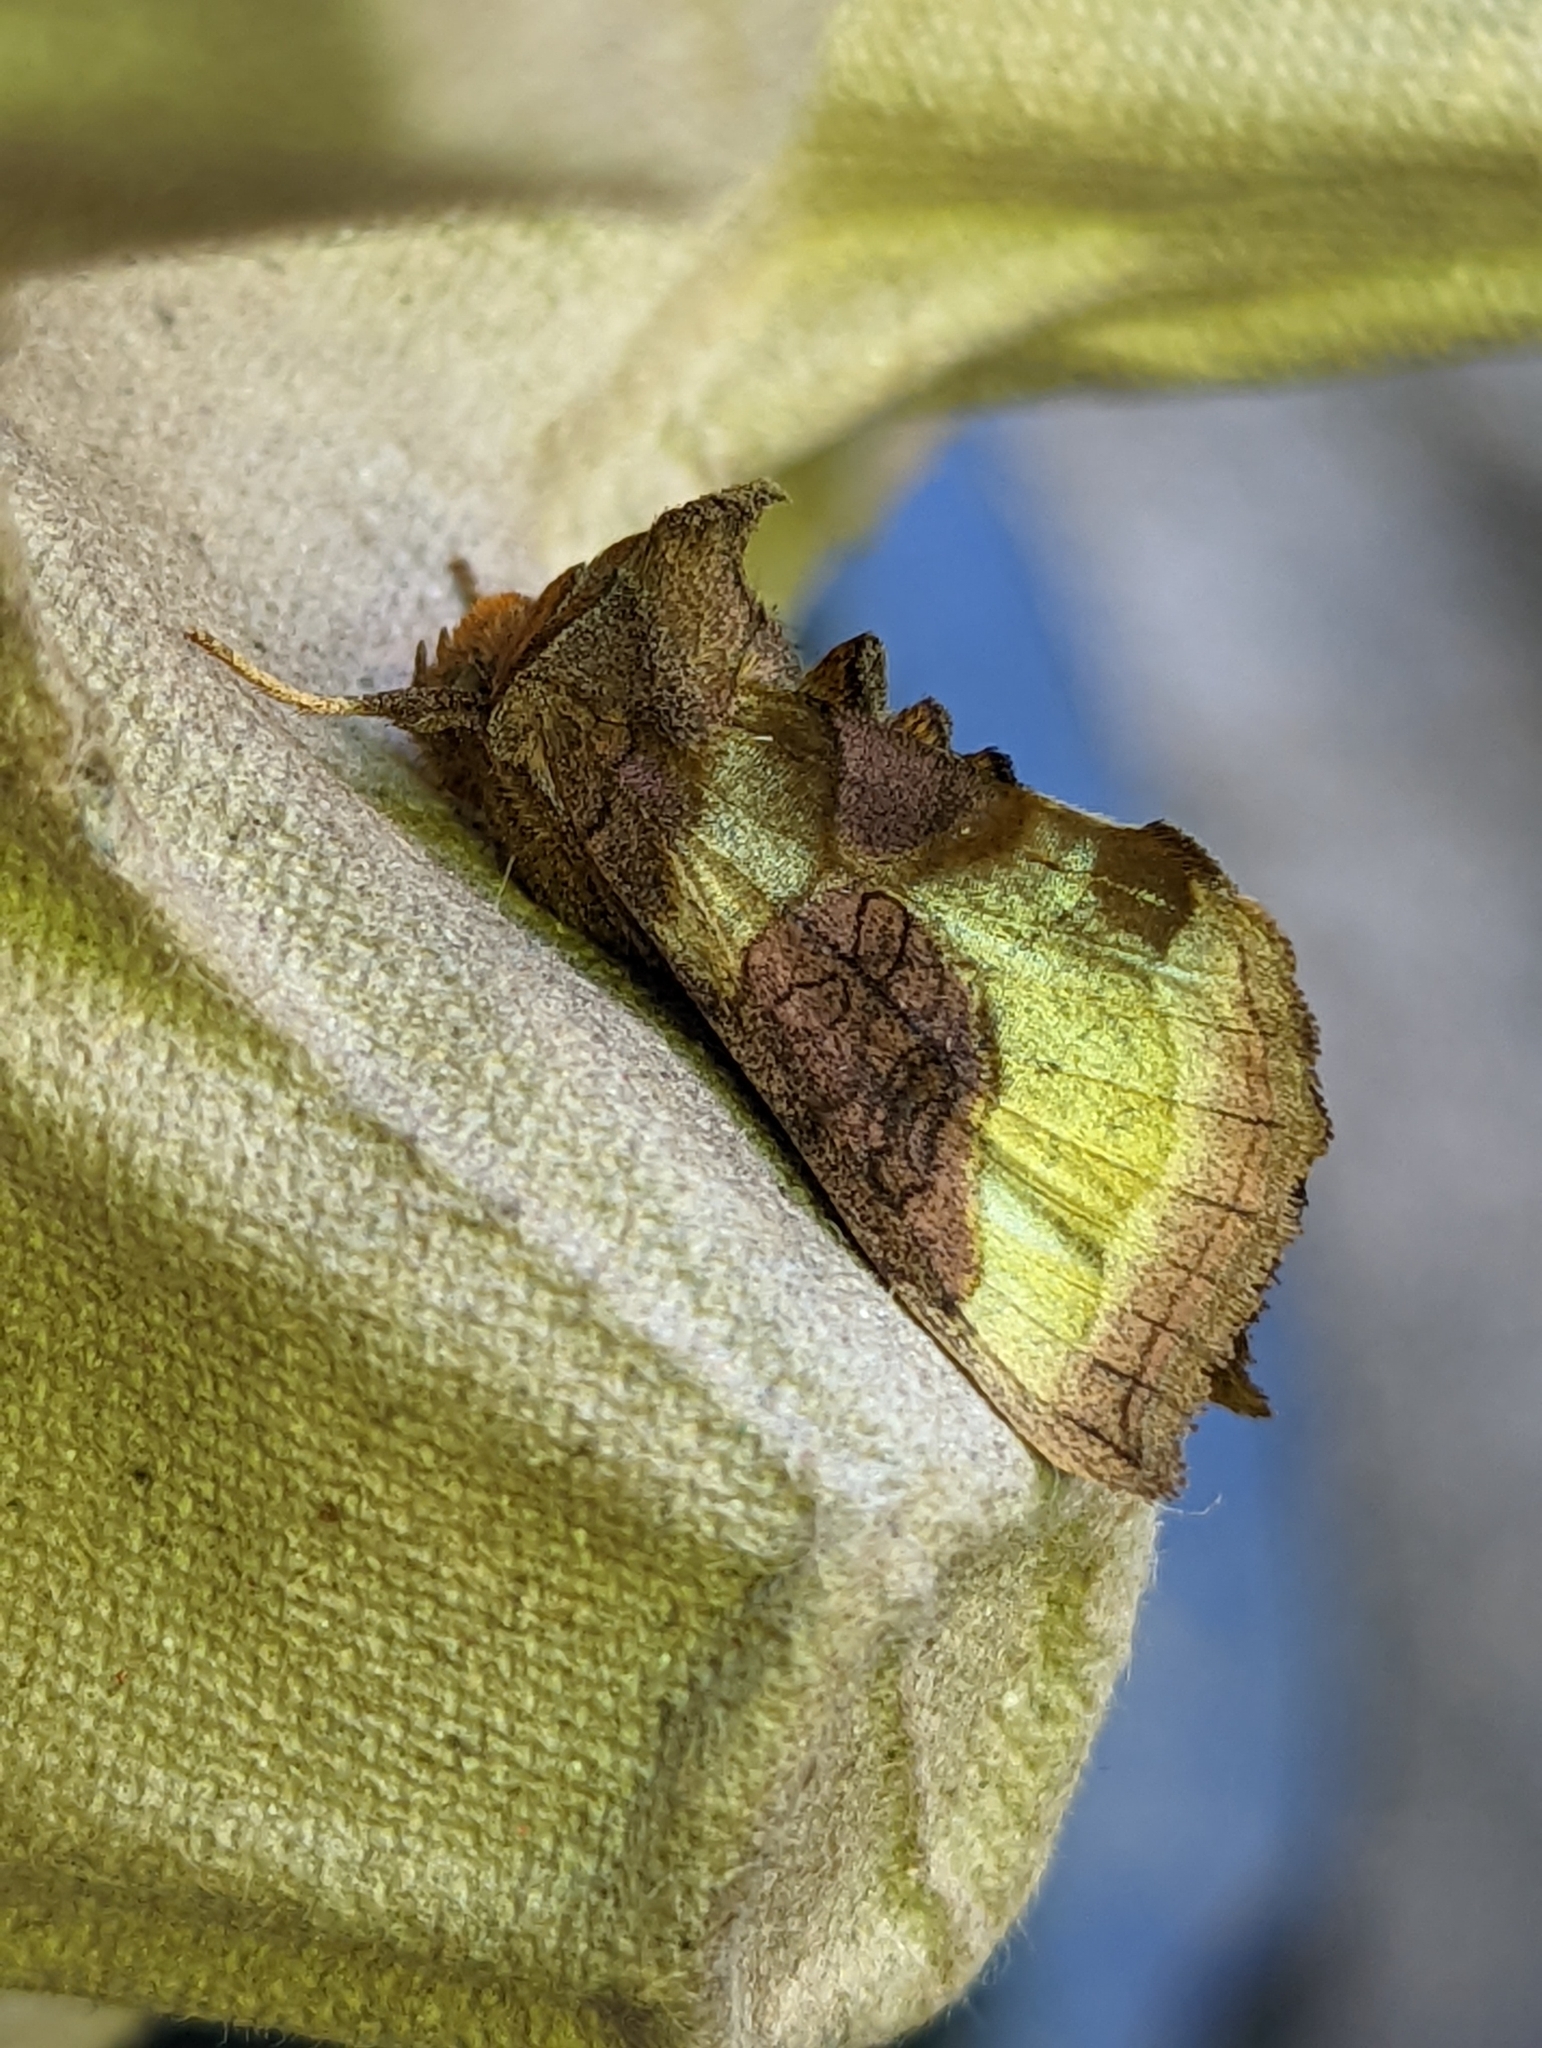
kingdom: Animalia
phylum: Arthropoda
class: Insecta
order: Lepidoptera
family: Noctuidae
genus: Diachrysia
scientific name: Diachrysia chrysitis
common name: Burnished brass
